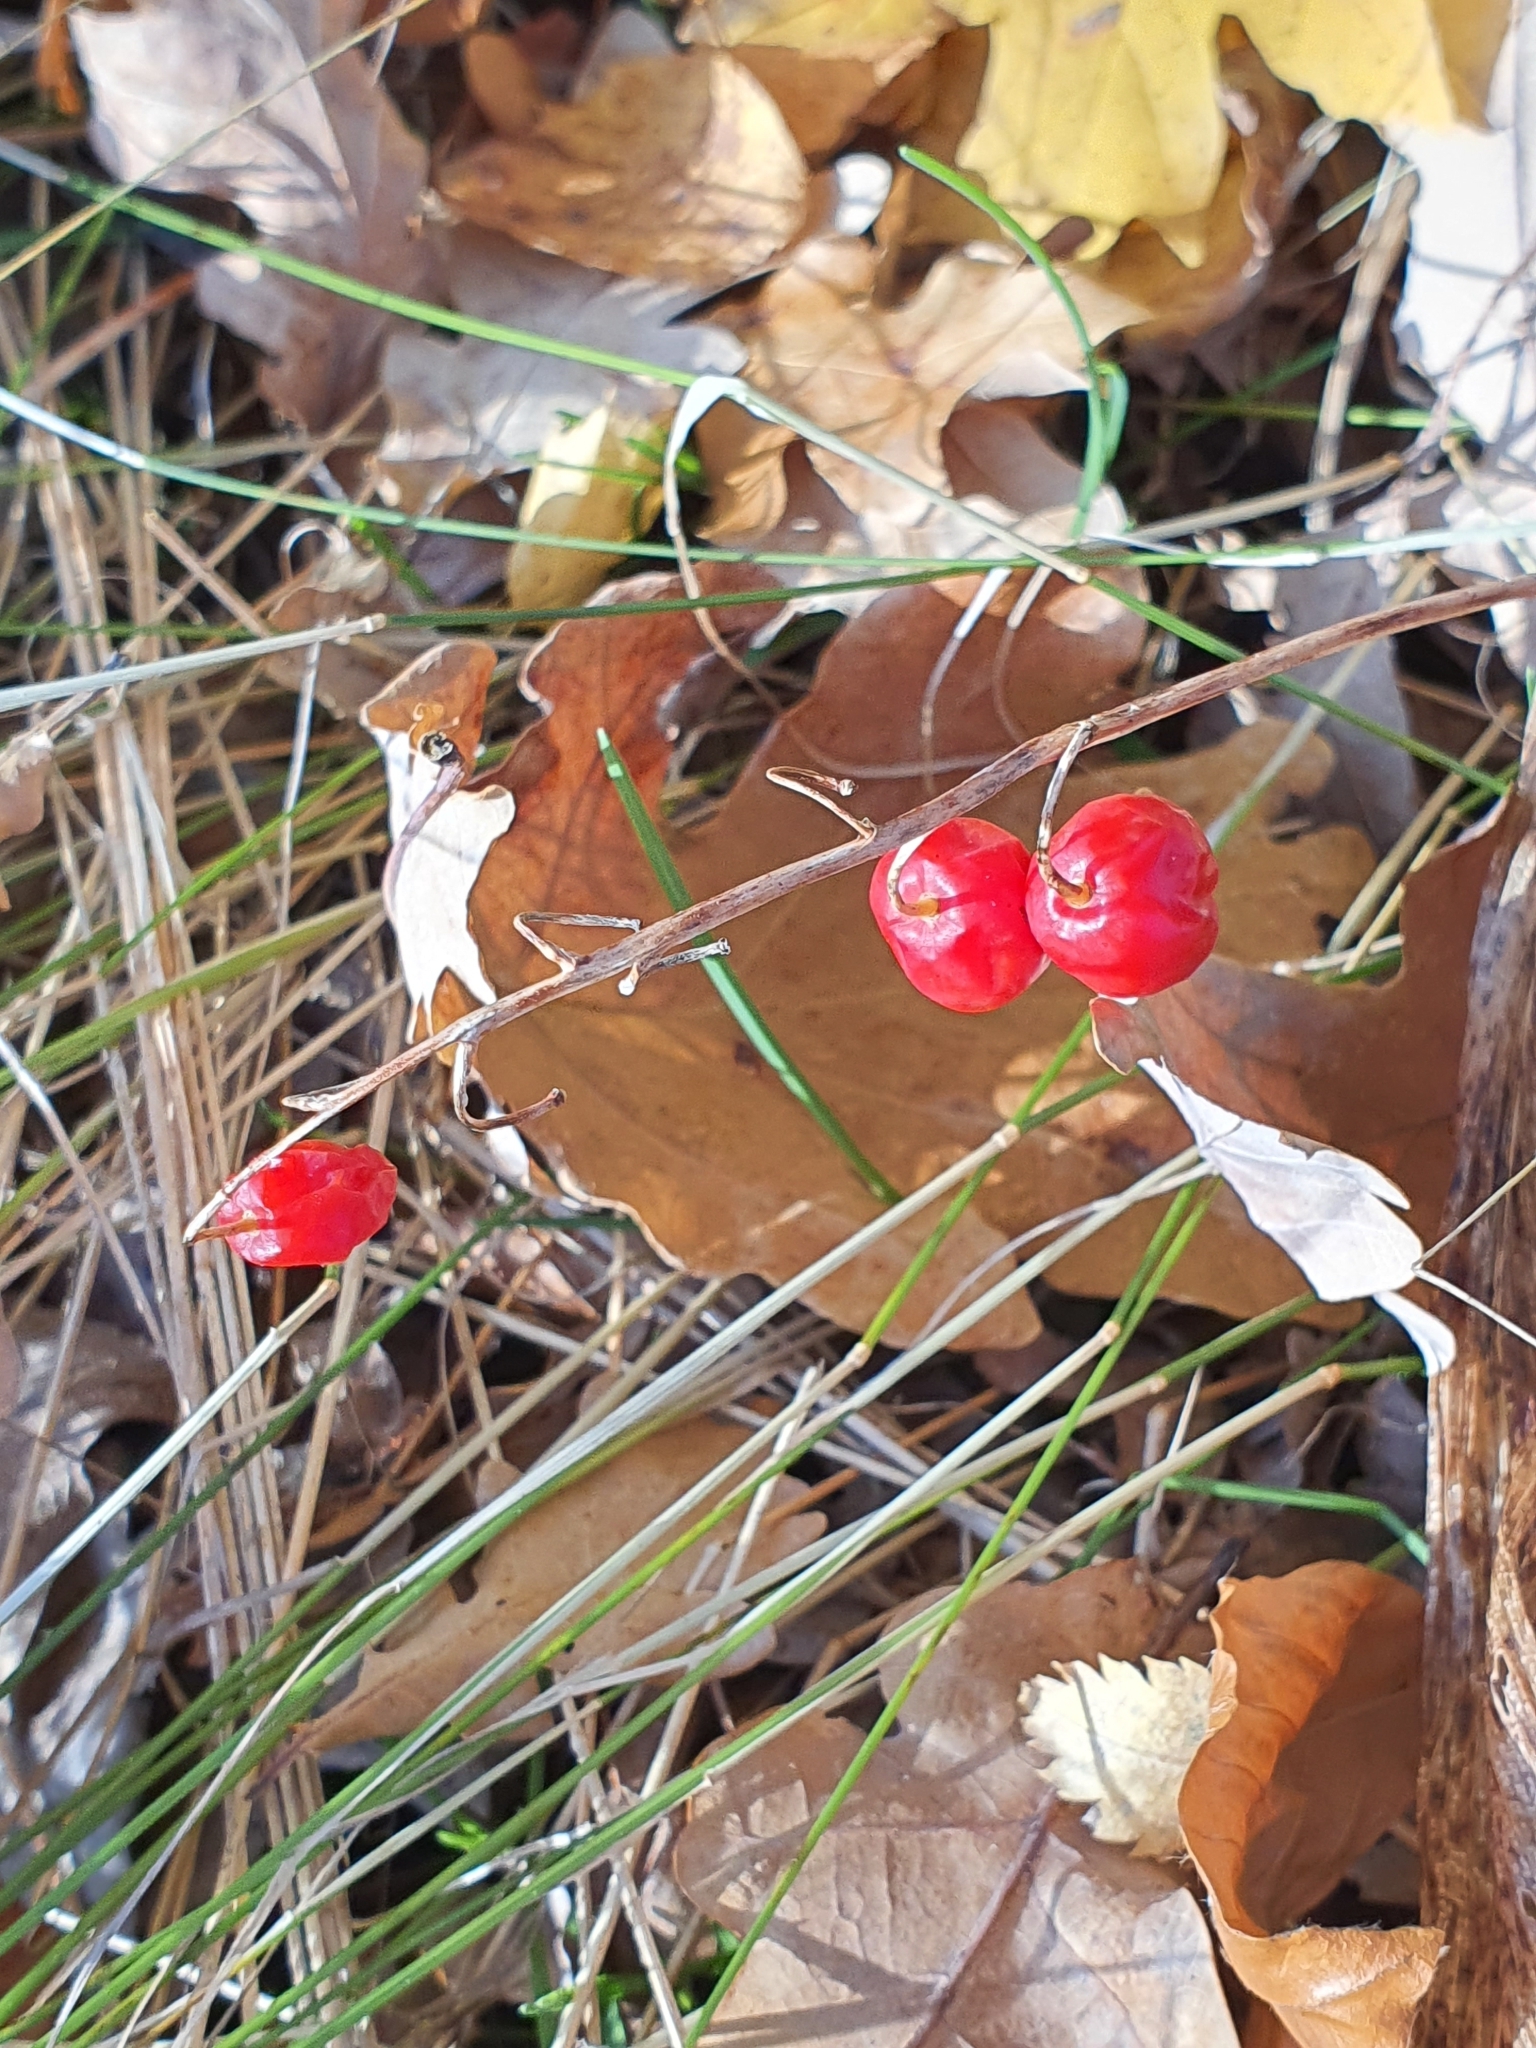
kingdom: Plantae
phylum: Tracheophyta
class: Liliopsida
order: Asparagales
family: Asparagaceae
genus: Convallaria
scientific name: Convallaria majalis
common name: Lily-of-the-valley
